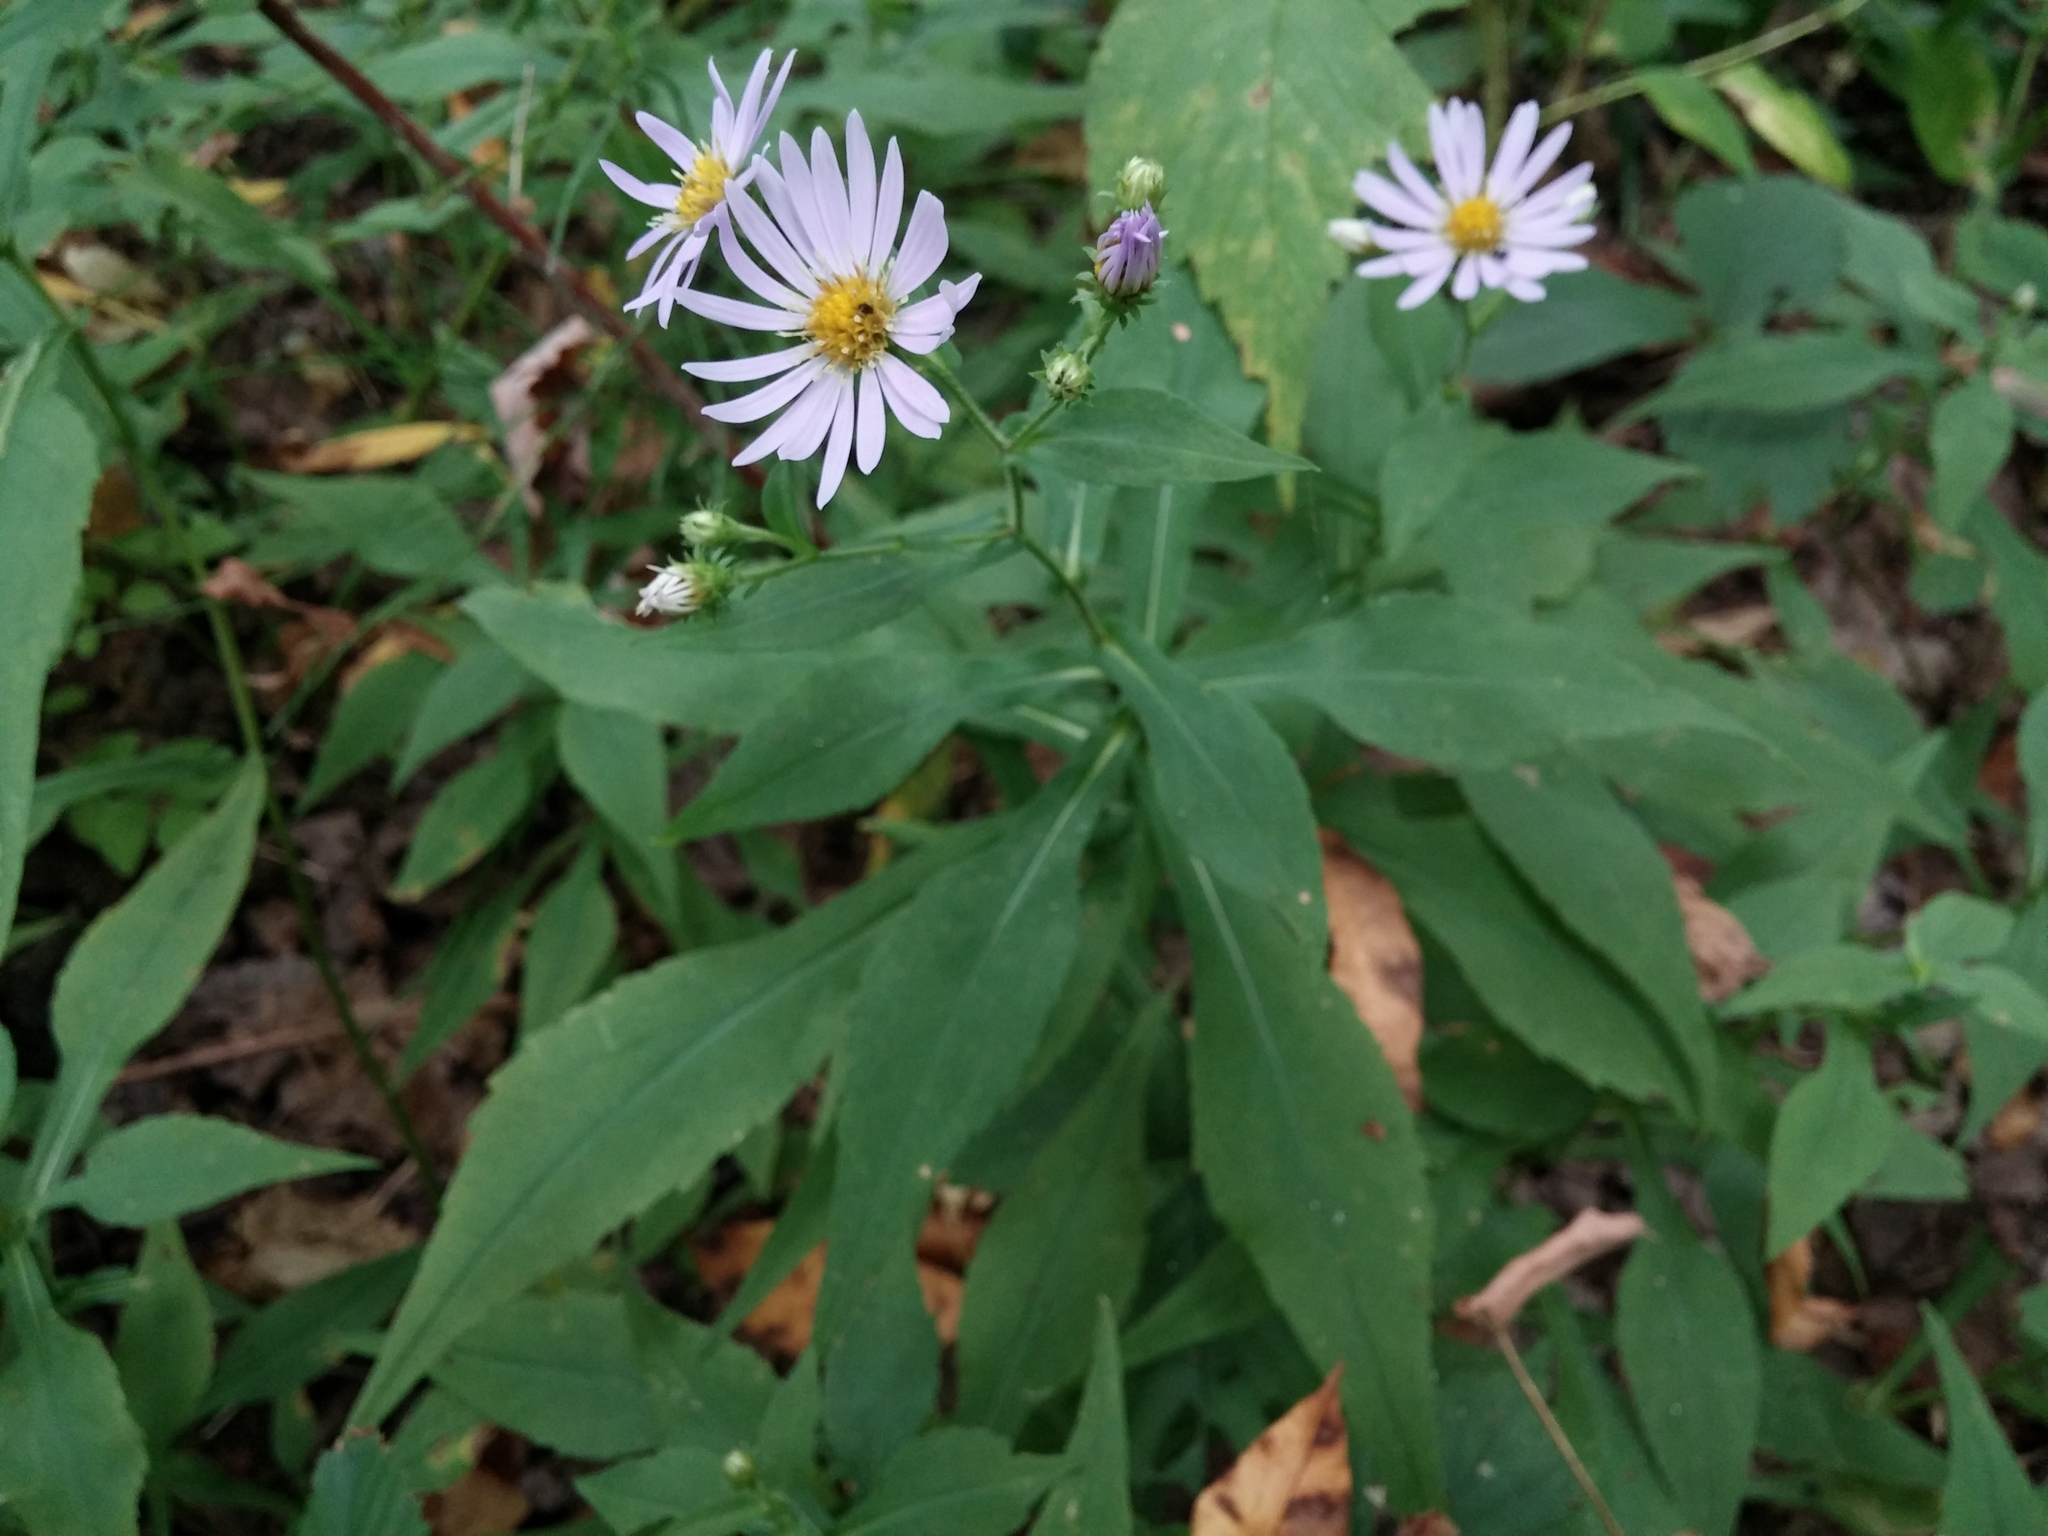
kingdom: Plantae
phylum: Tracheophyta
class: Magnoliopsida
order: Asterales
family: Asteraceae
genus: Symphyotrichum
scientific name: Symphyotrichum prenanthoides
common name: Crooked-stem aster
